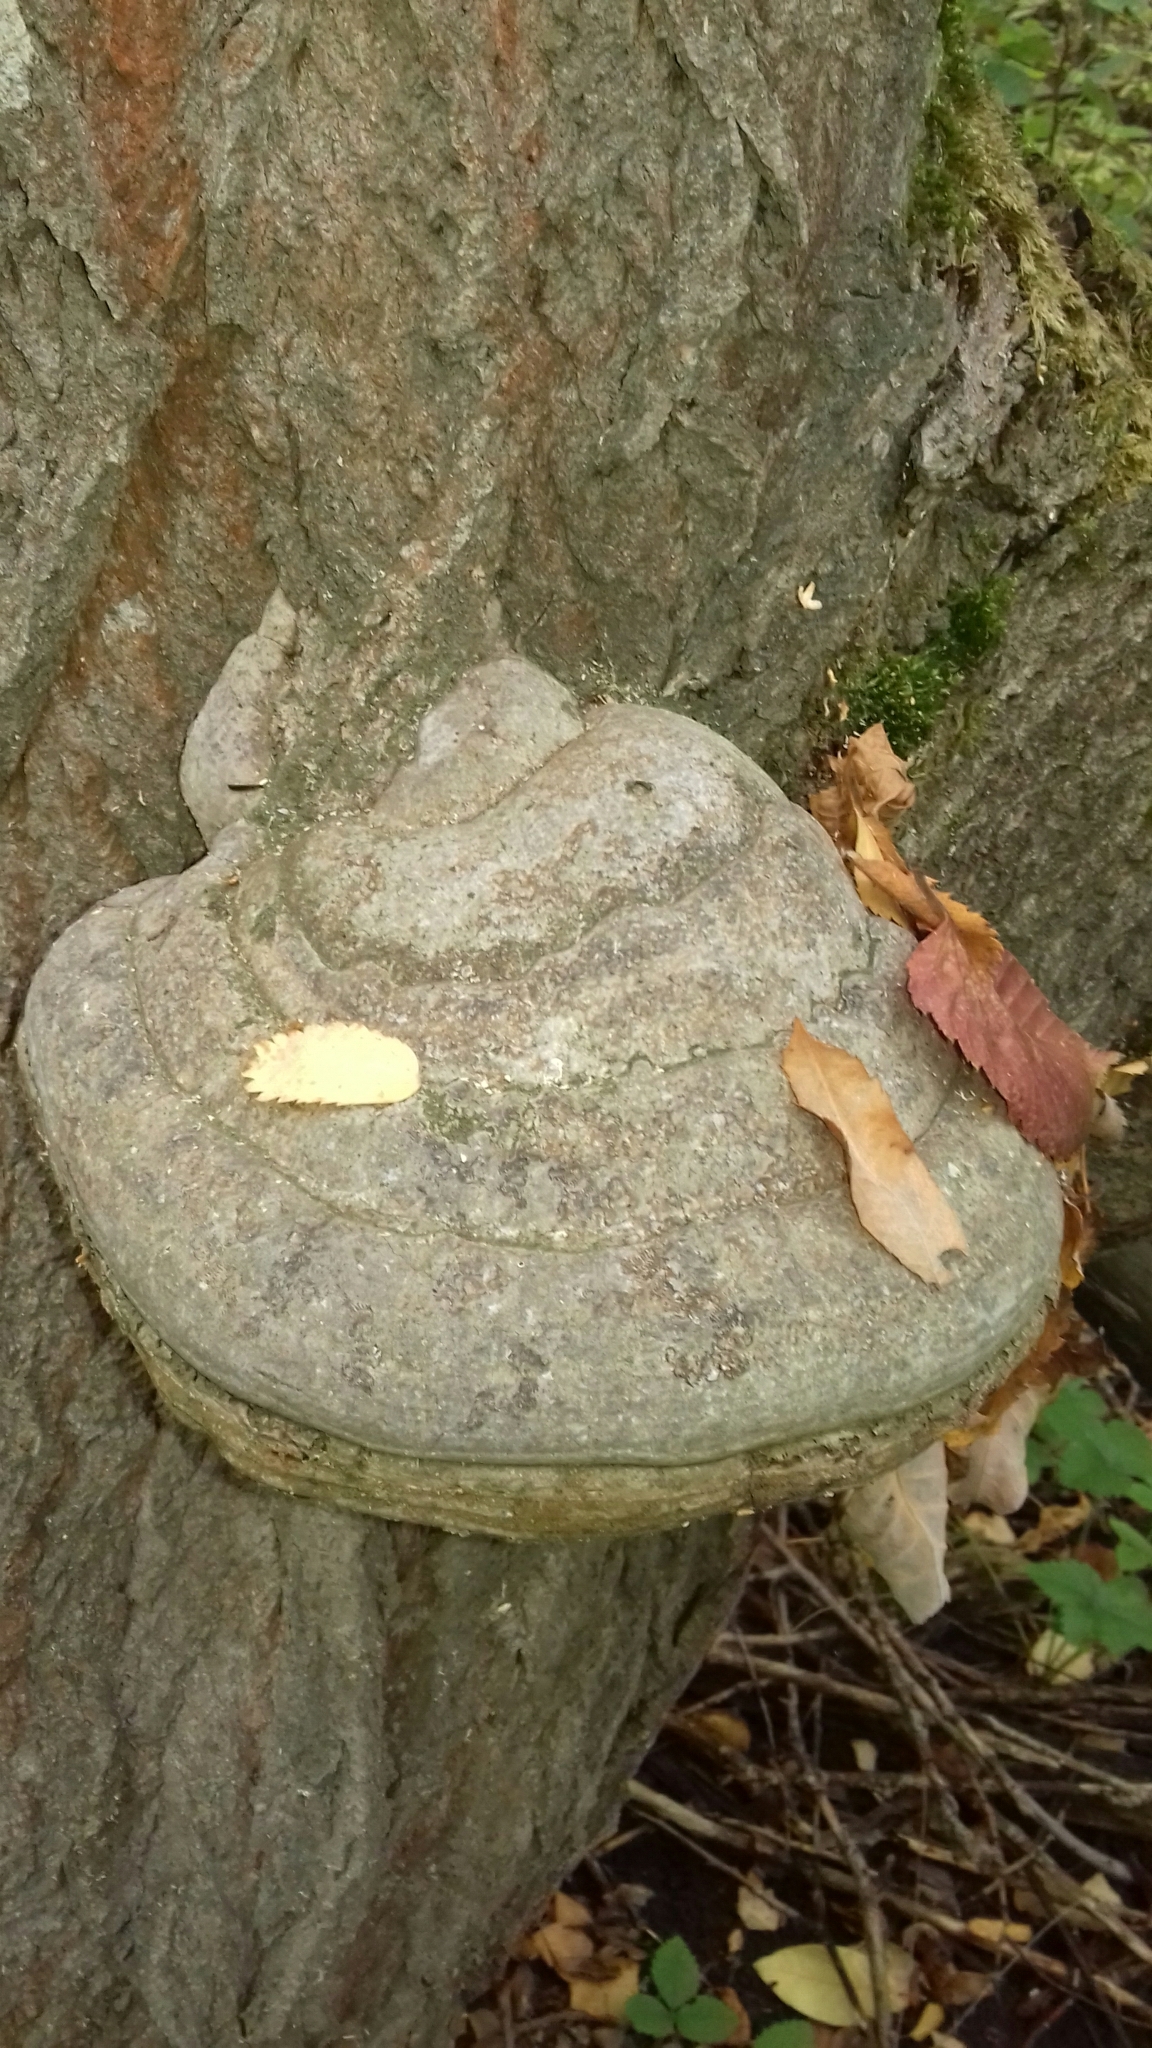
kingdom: Fungi
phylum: Basidiomycota
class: Agaricomycetes
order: Polyporales
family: Polyporaceae
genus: Fomes
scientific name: Fomes fomentarius
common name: Hoof fungus
